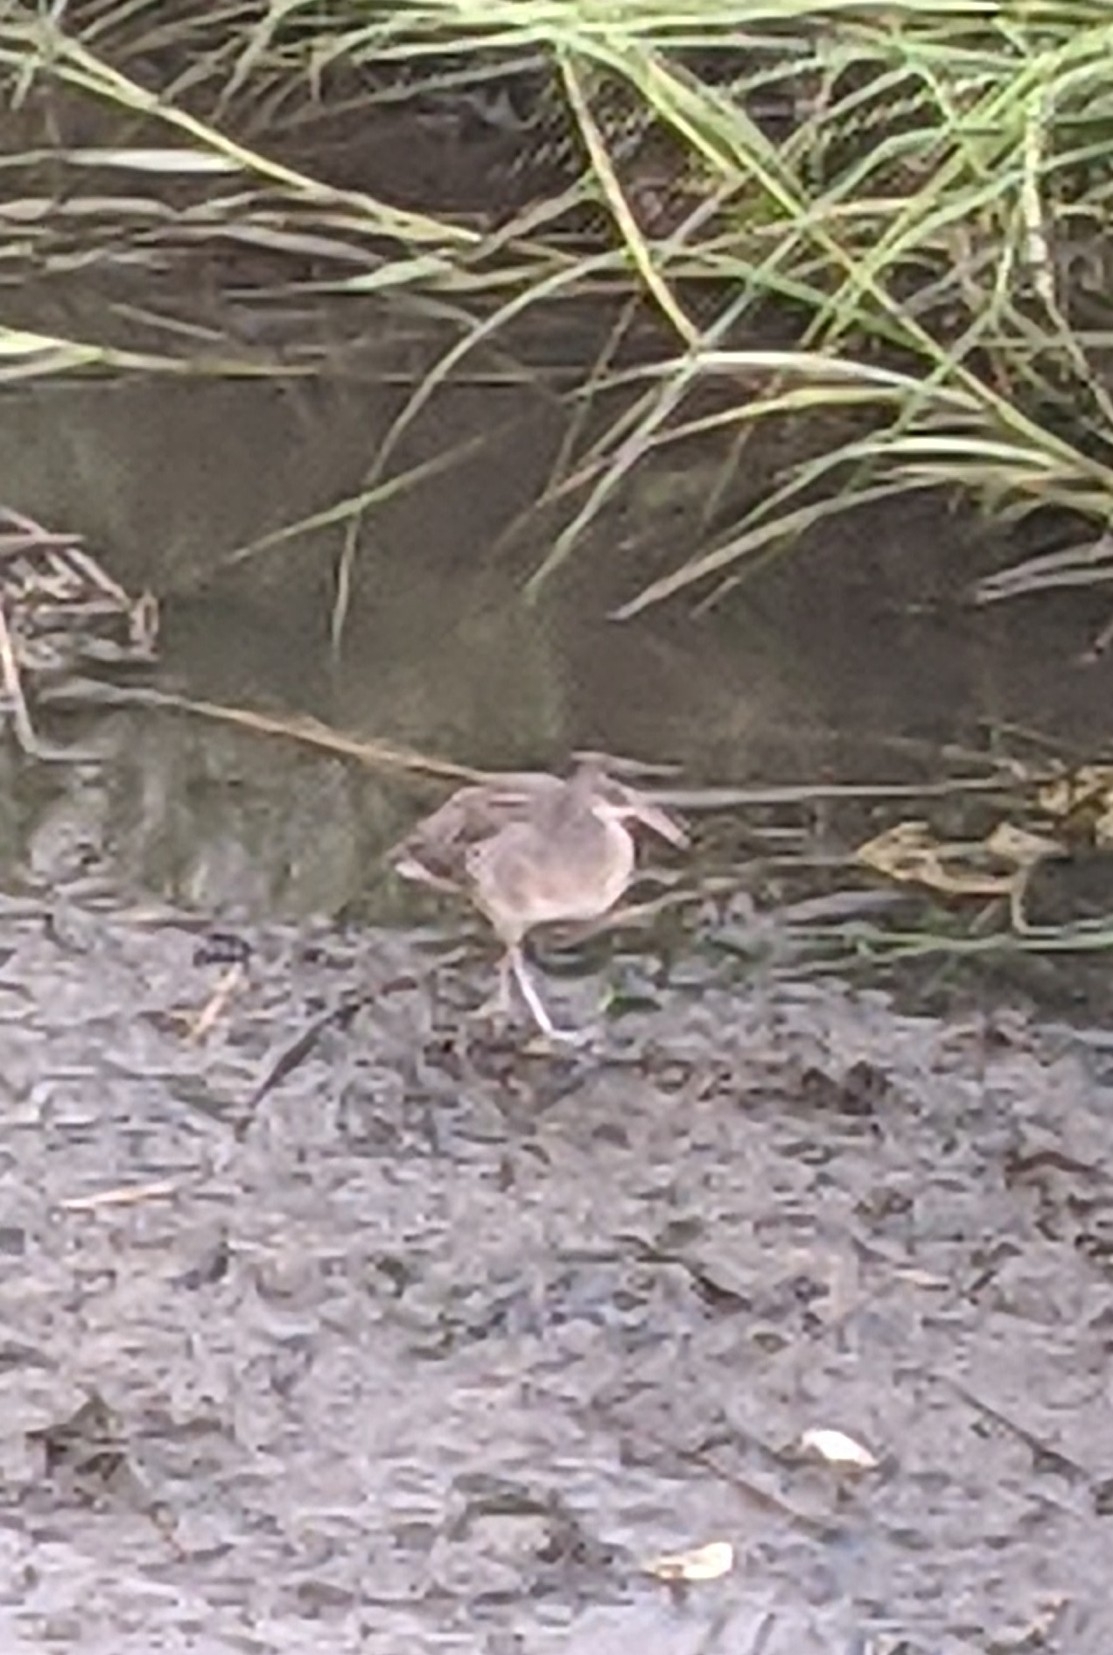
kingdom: Animalia
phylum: Chordata
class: Aves
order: Gruiformes
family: Rallidae
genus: Rallus
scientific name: Rallus crepitans
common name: Clapper rail
